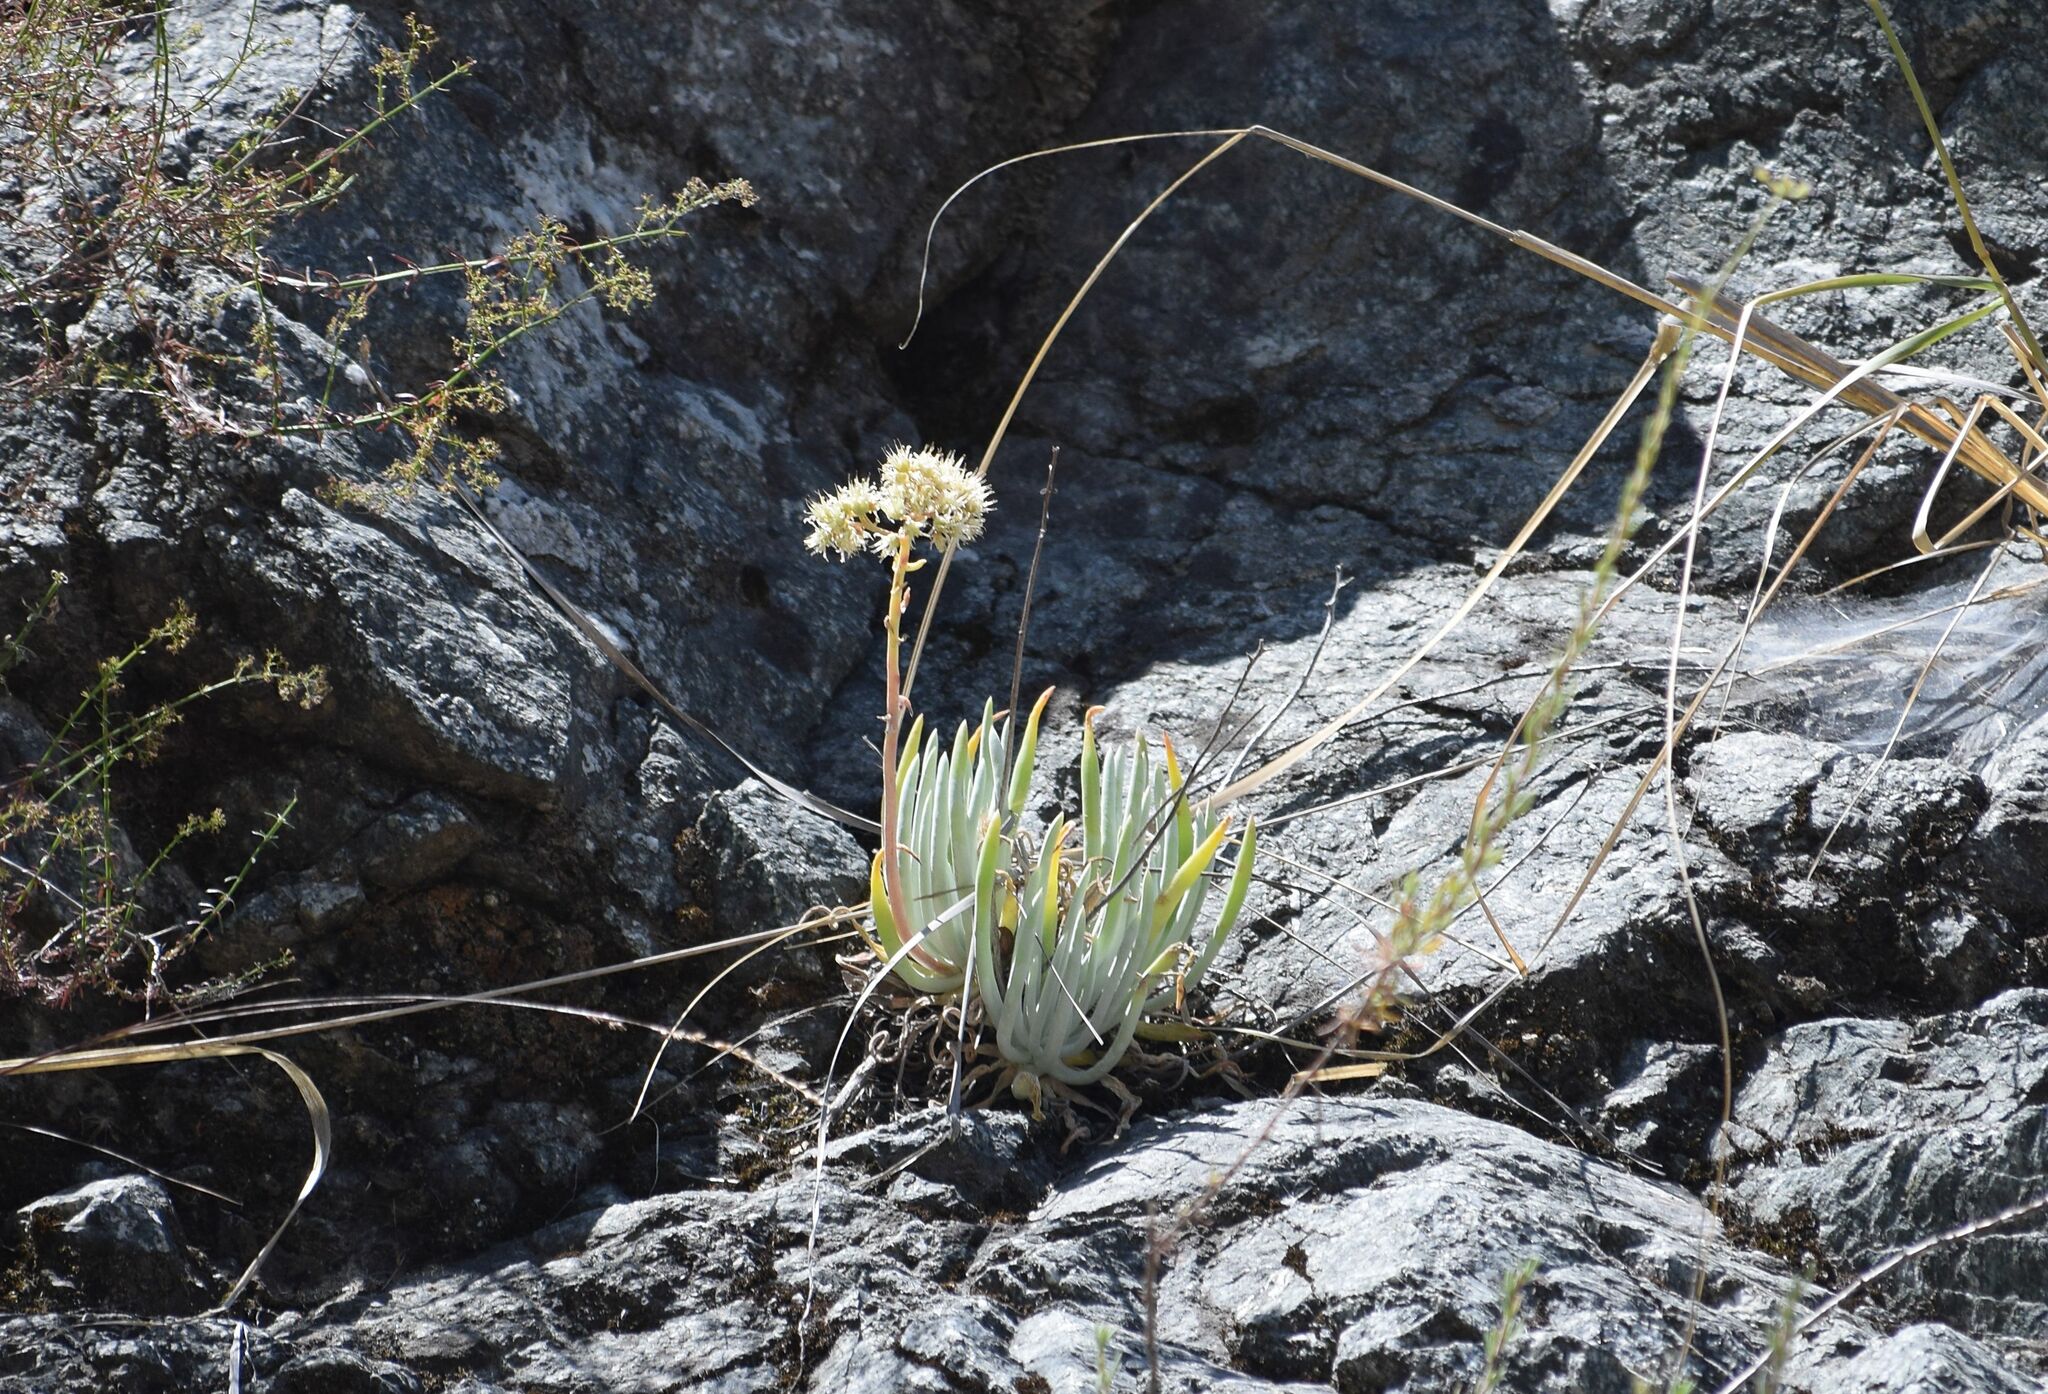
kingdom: Plantae
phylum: Tracheophyta
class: Magnoliopsida
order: Saxifragales
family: Crassulaceae
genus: Dudleya
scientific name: Dudleya densiflora
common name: San gabriel mountains dudleya
